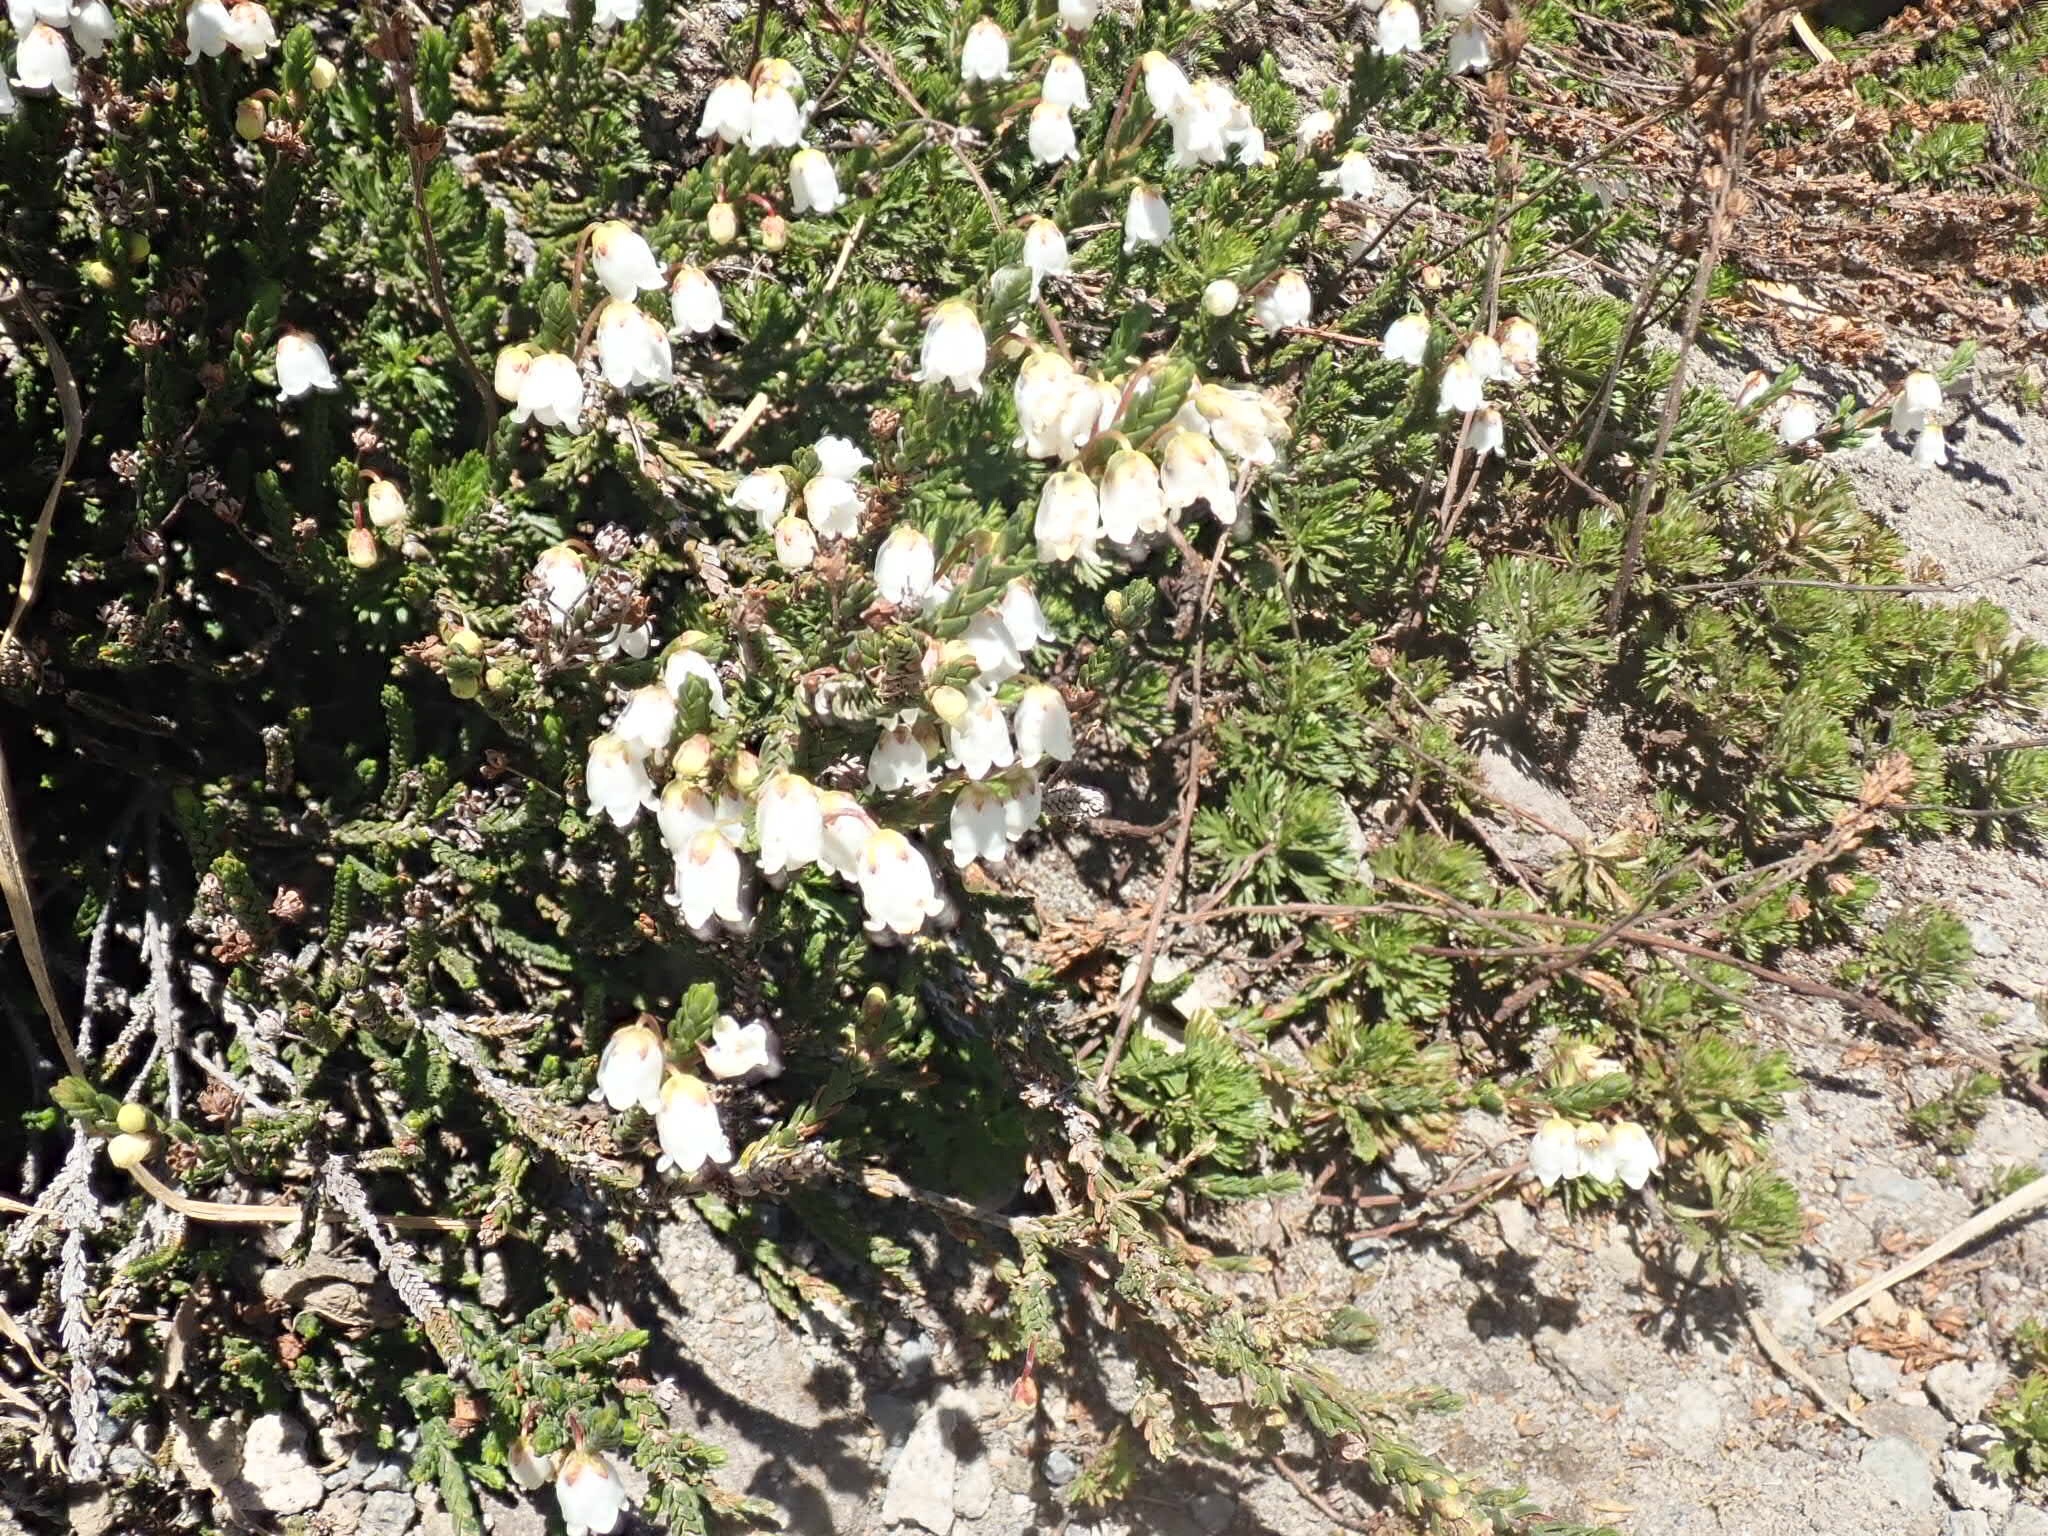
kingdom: Plantae
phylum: Tracheophyta
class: Magnoliopsida
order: Ericales
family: Ericaceae
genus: Cassiope
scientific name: Cassiope mertensiana
